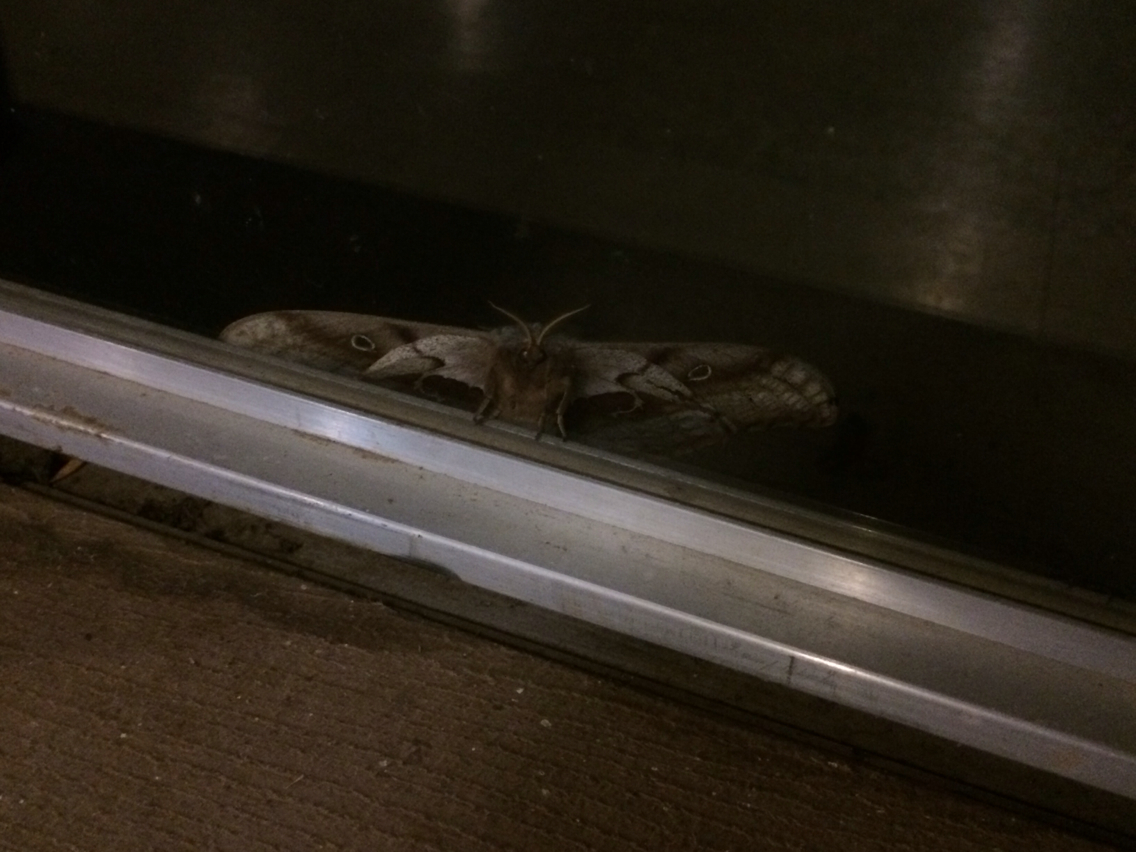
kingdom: Animalia
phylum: Arthropoda
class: Insecta
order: Lepidoptera
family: Saturniidae
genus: Antheraea
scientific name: Antheraea polyphemus
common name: Polyphemus moth
